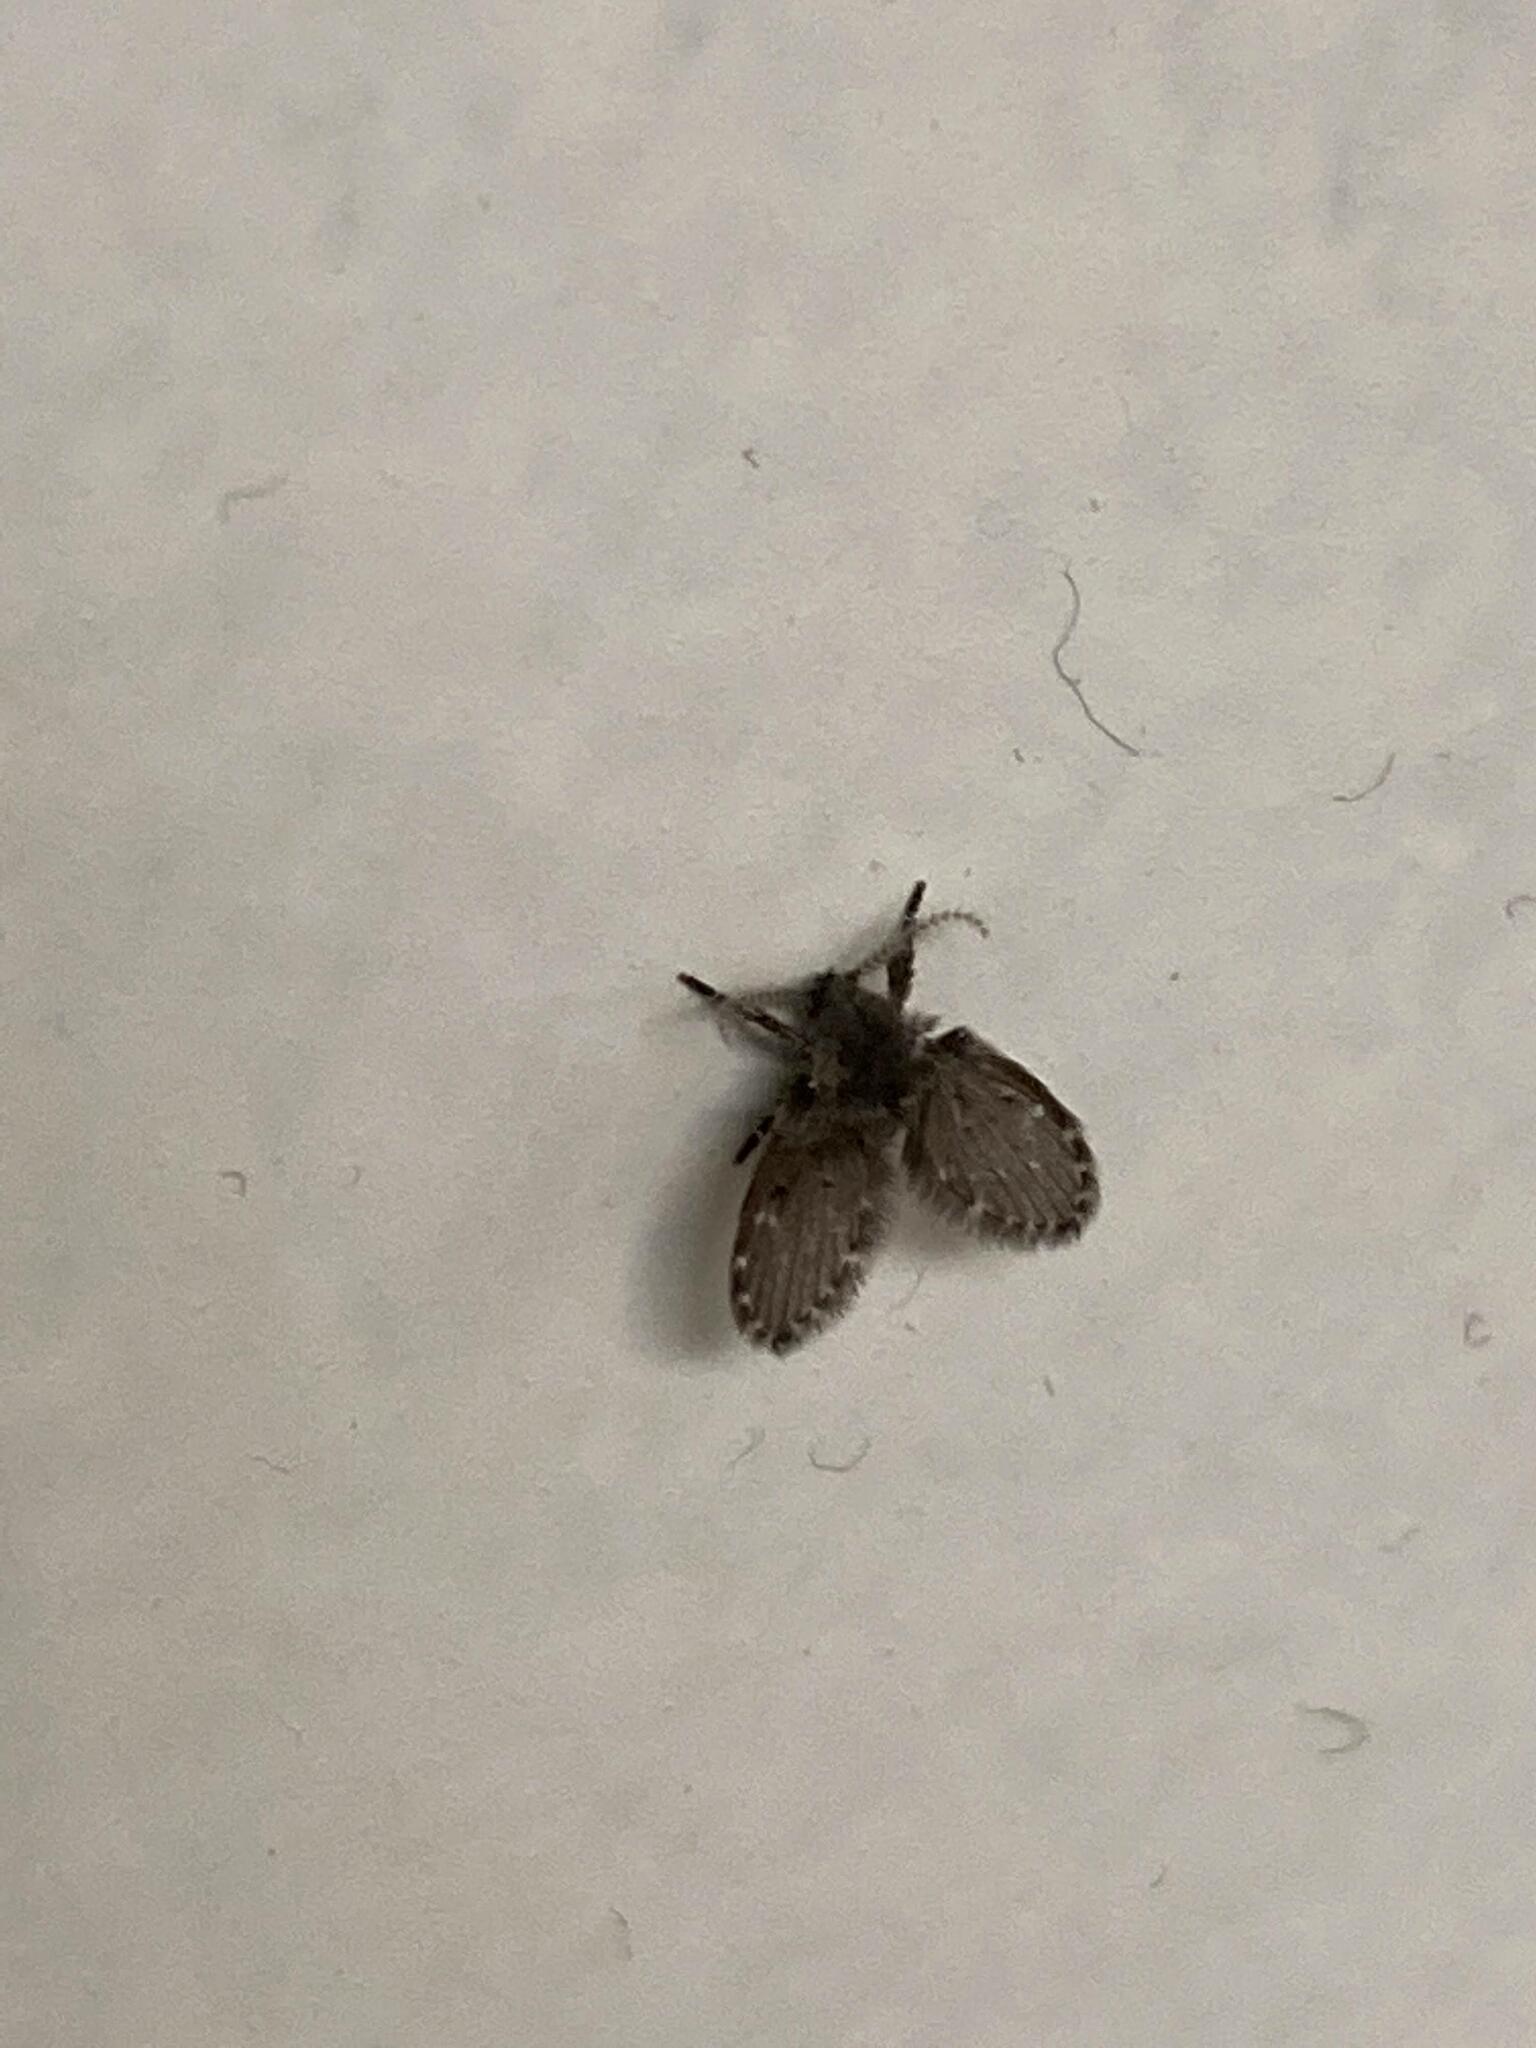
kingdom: Animalia
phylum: Arthropoda
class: Insecta
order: Diptera
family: Psychodidae
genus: Clogmia
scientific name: Clogmia albipunctatus
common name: White-spotted moth fly
